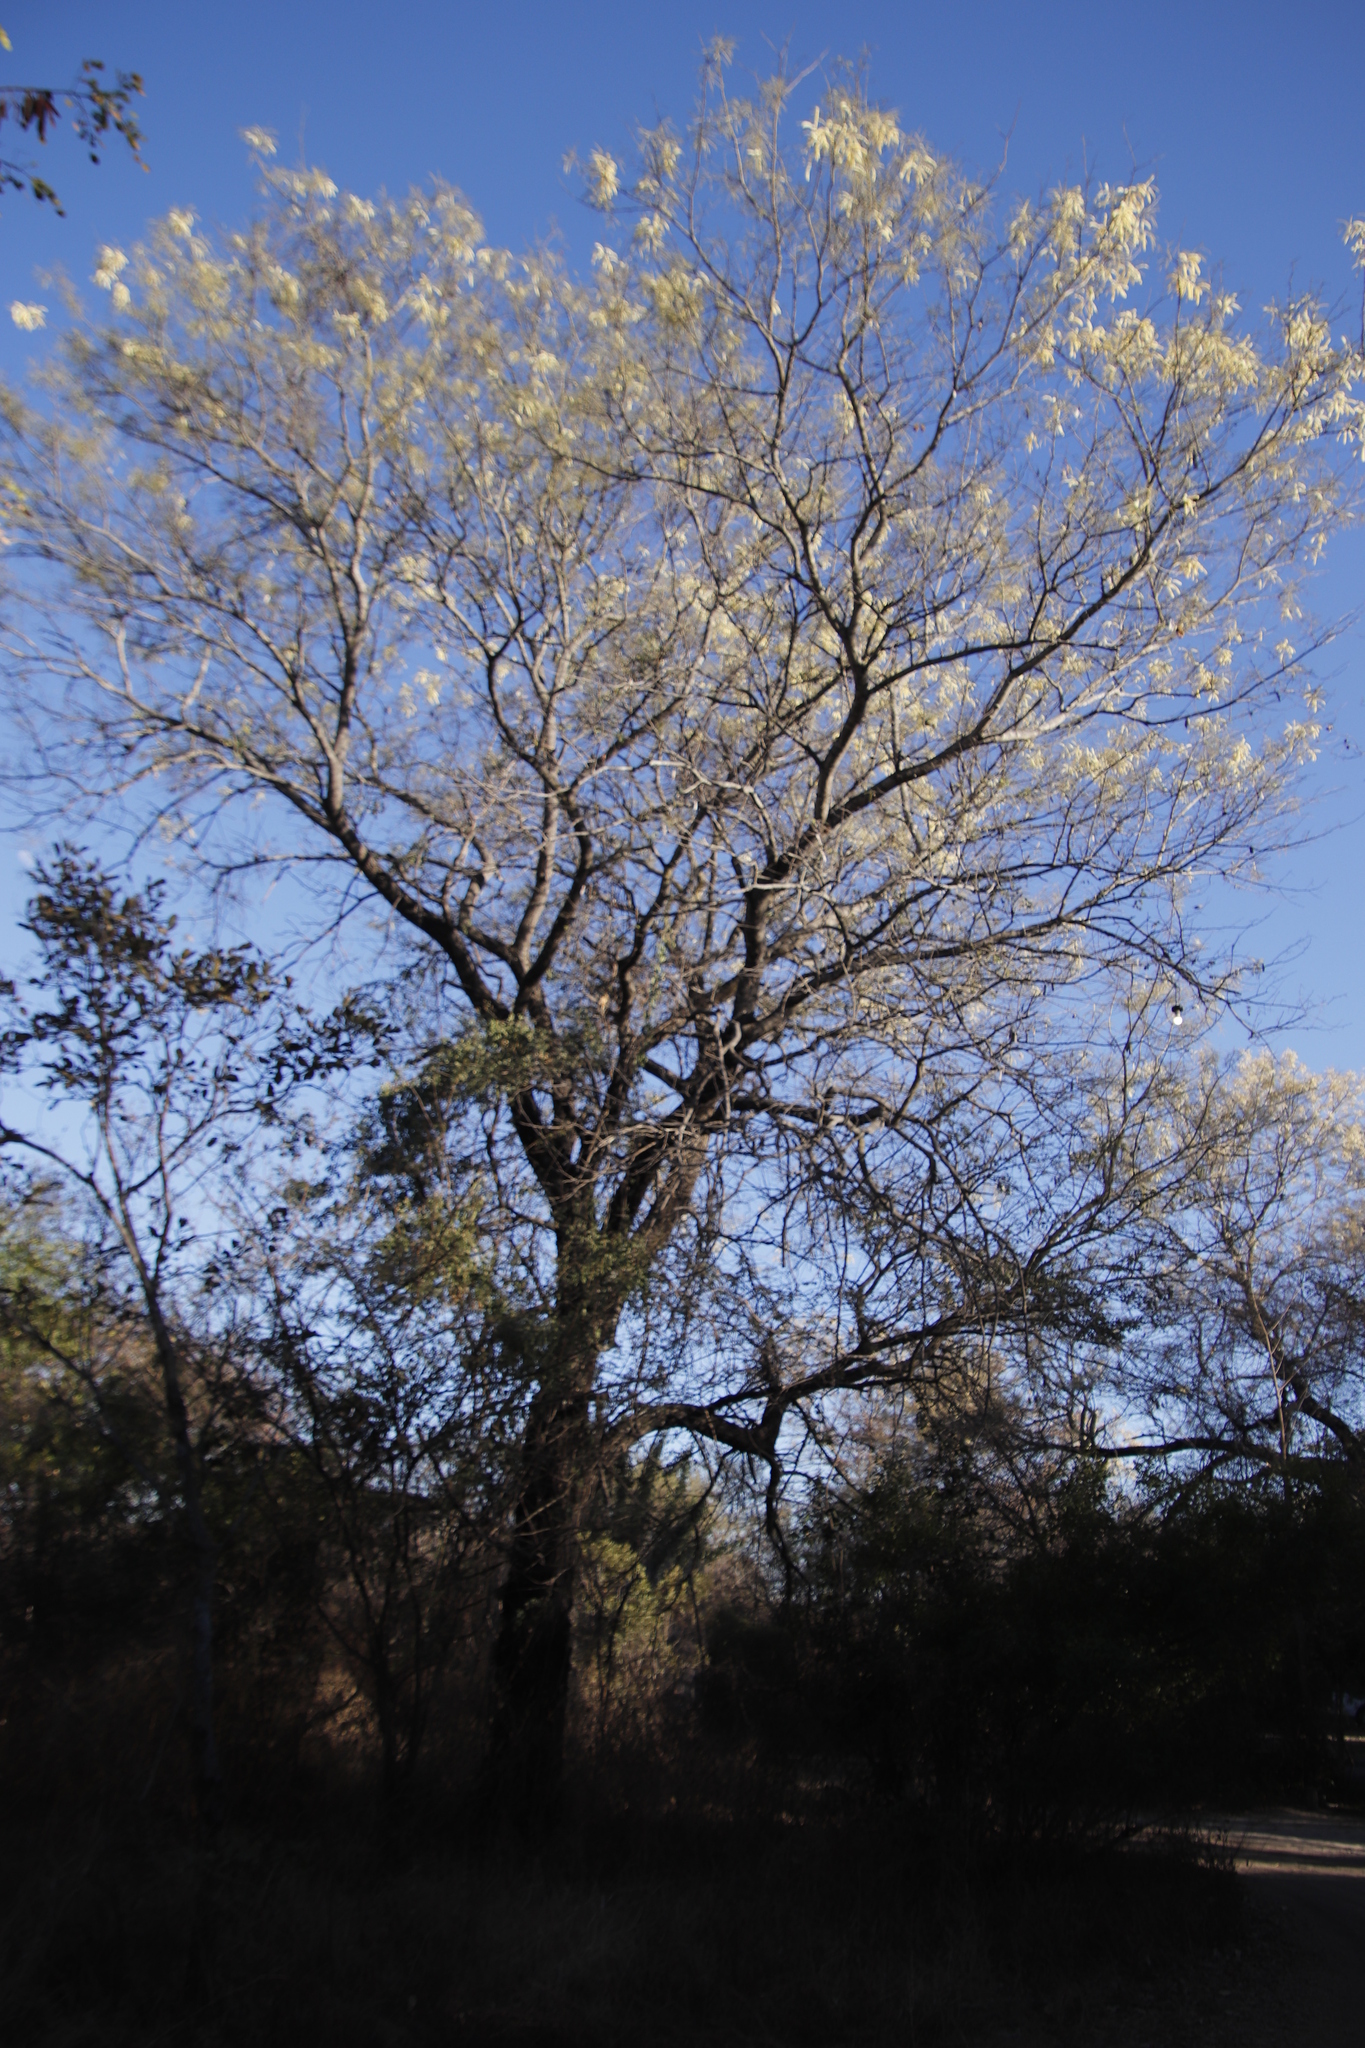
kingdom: Plantae
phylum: Tracheophyta
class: Magnoliopsida
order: Fabales
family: Fabaceae
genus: Senegalia
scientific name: Senegalia nigrescens
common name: Knobthorn
